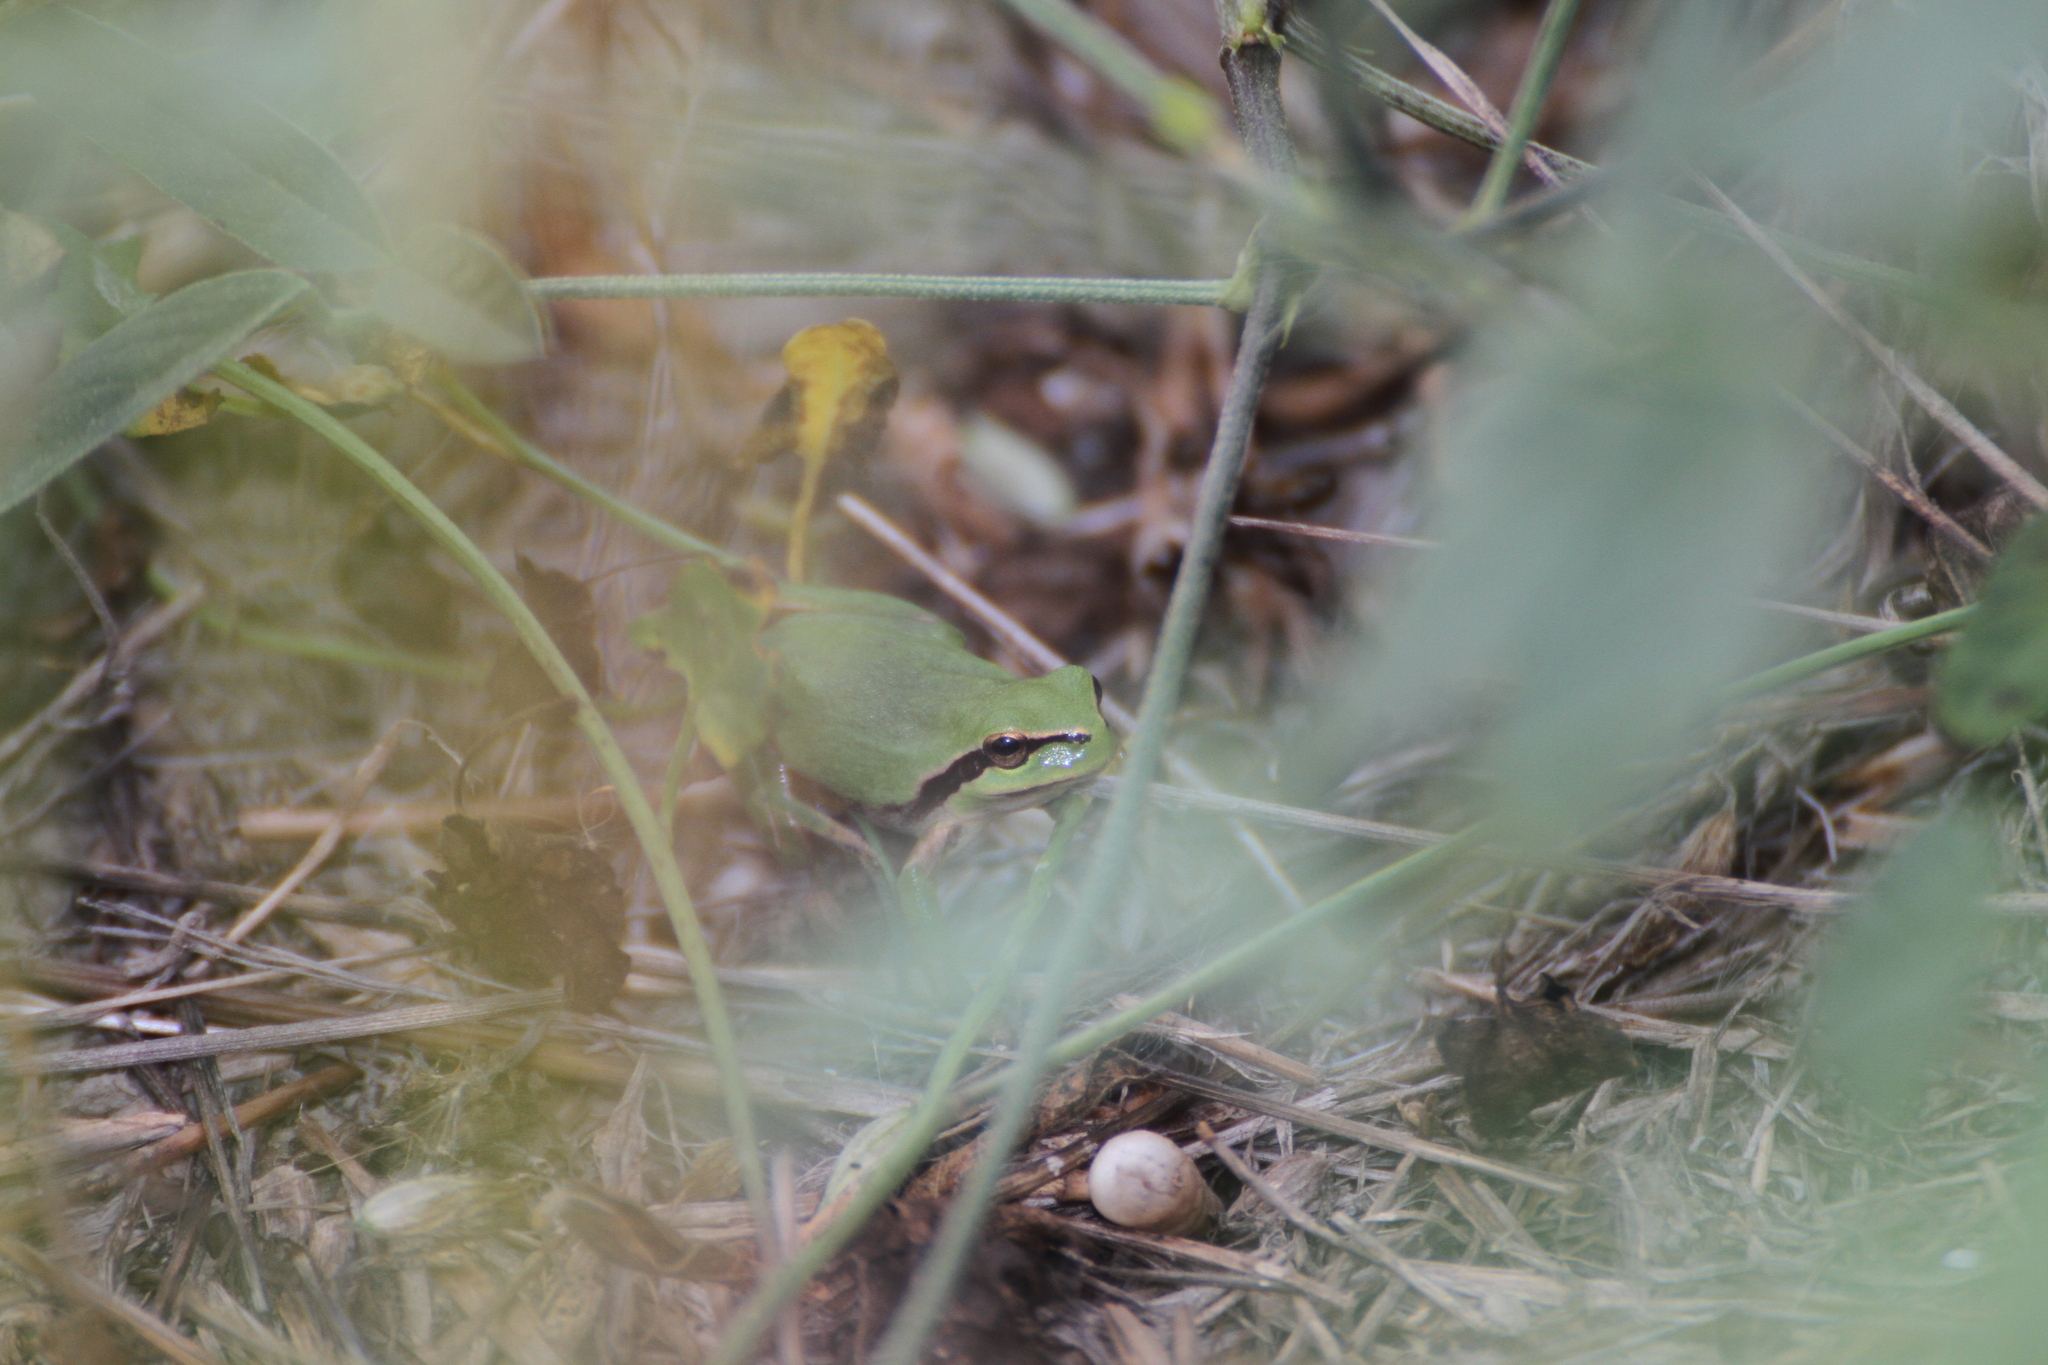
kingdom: Animalia
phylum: Chordata
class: Amphibia
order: Anura
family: Hylidae
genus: Hyla
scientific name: Hyla meridionalis
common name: Stripeless tree frog
